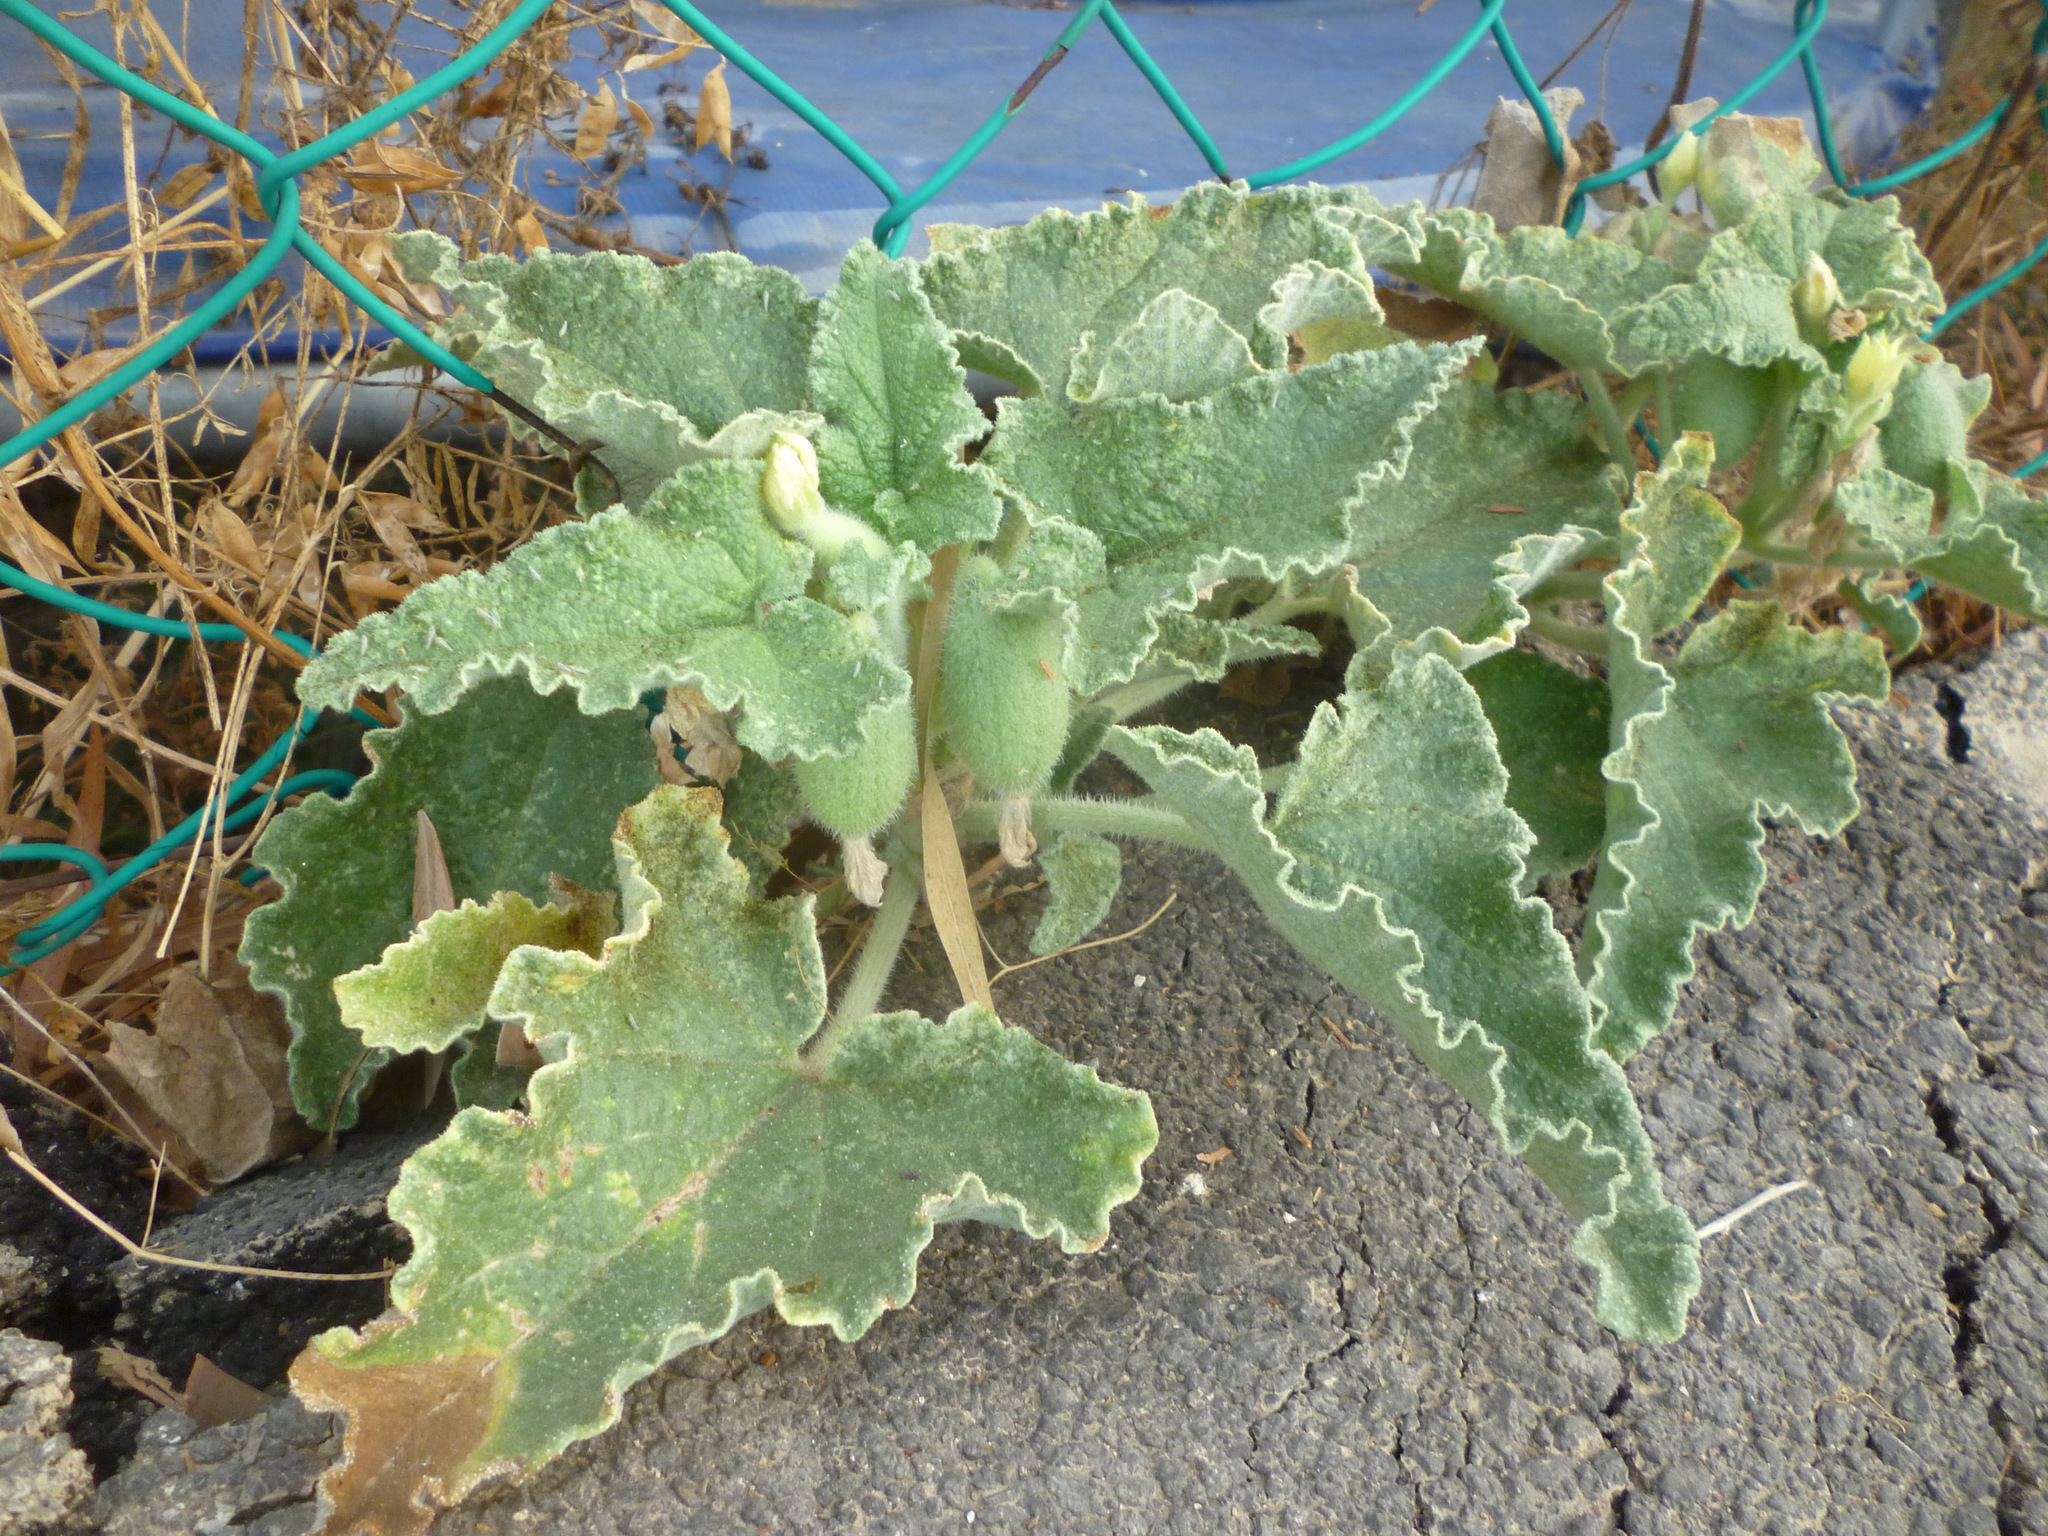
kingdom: Plantae
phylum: Tracheophyta
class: Magnoliopsida
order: Cucurbitales
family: Cucurbitaceae
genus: Ecballium
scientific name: Ecballium elaterium
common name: Squirting cucumber
